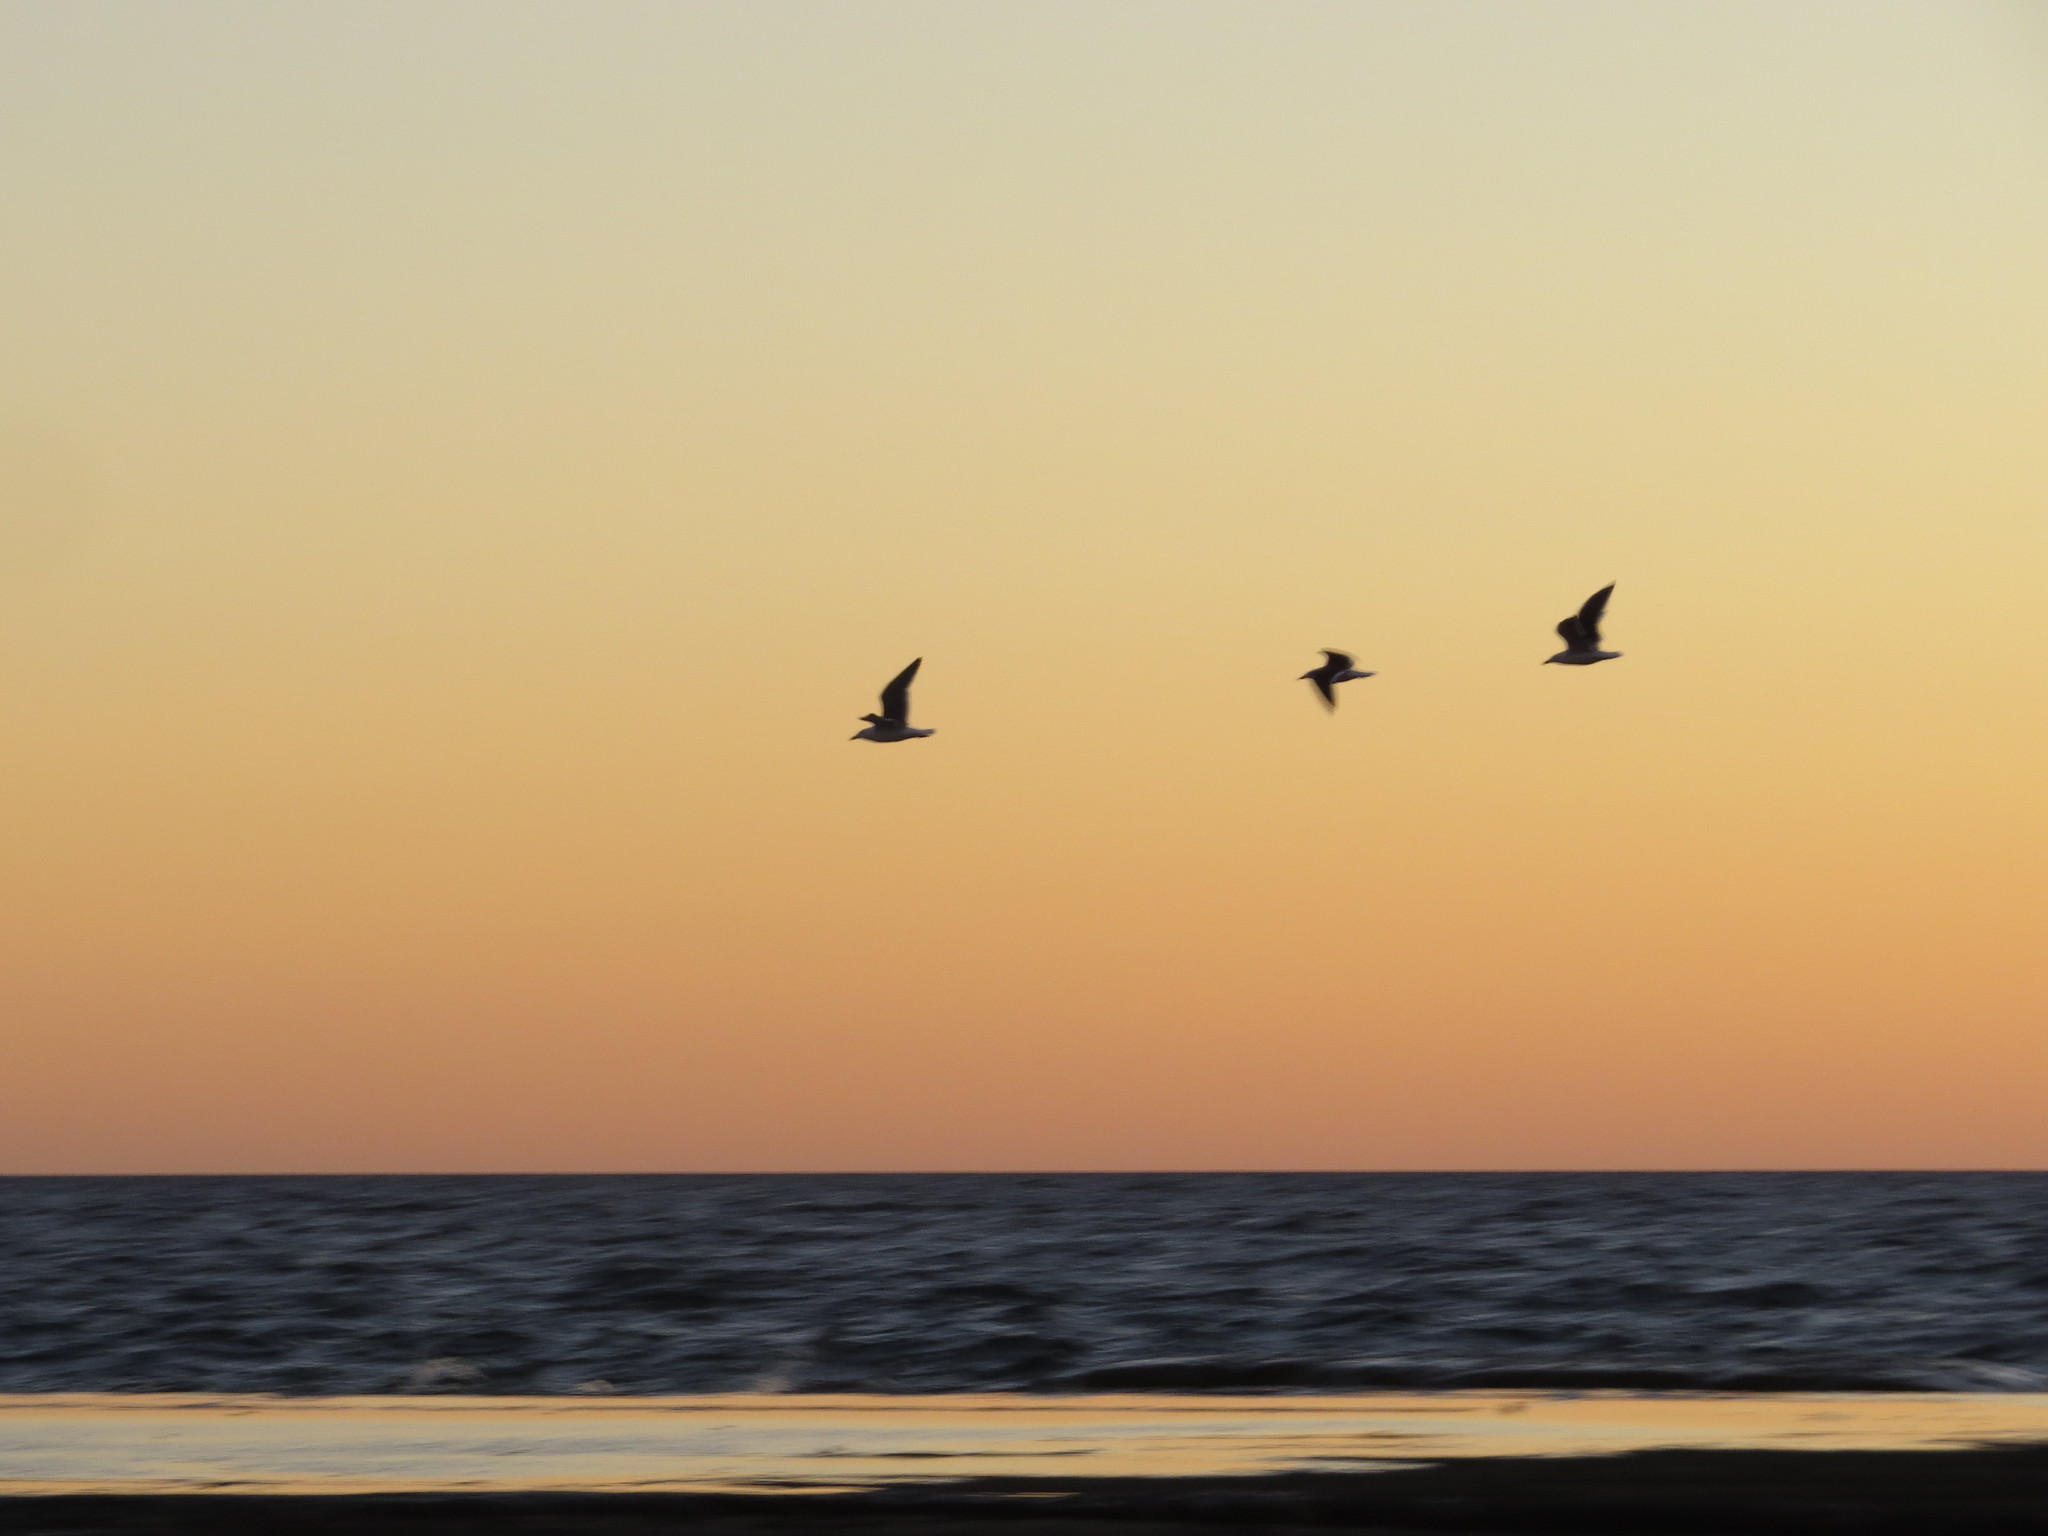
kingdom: Animalia
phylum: Chordata
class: Aves
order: Charadriiformes
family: Laridae
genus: Larus
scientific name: Larus dominicanus
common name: Kelp gull
